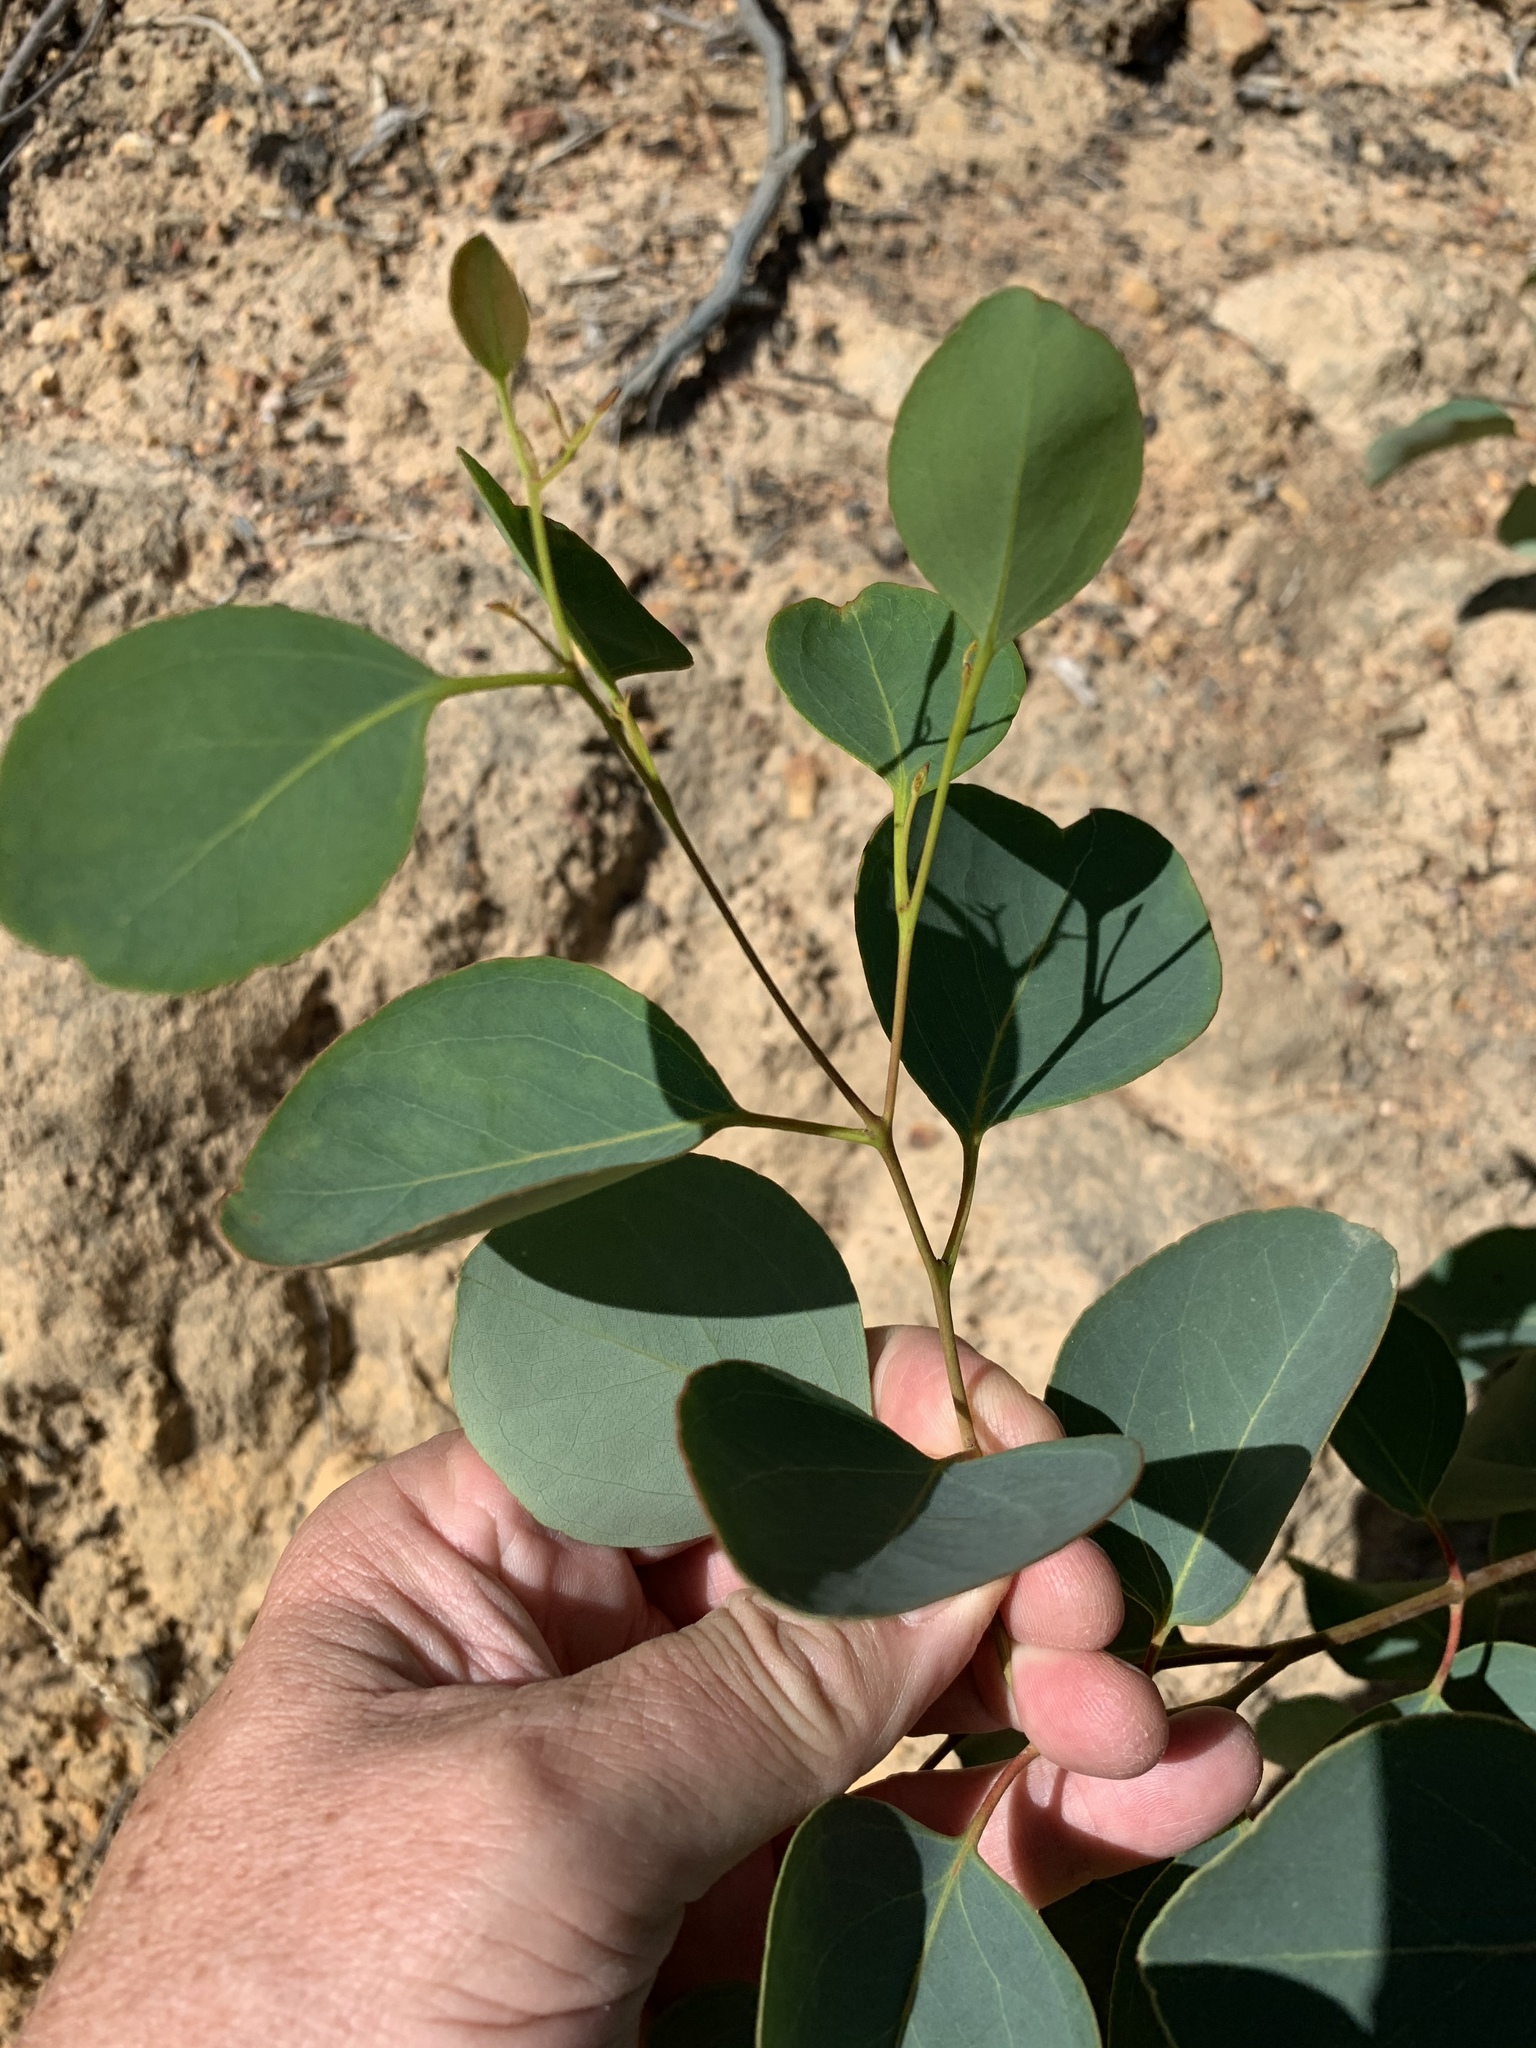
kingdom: Plantae
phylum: Tracheophyta
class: Magnoliopsida
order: Myrtales
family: Myrtaceae
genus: Eucalyptus
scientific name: Eucalyptus cladocalyx
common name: Sugargum
